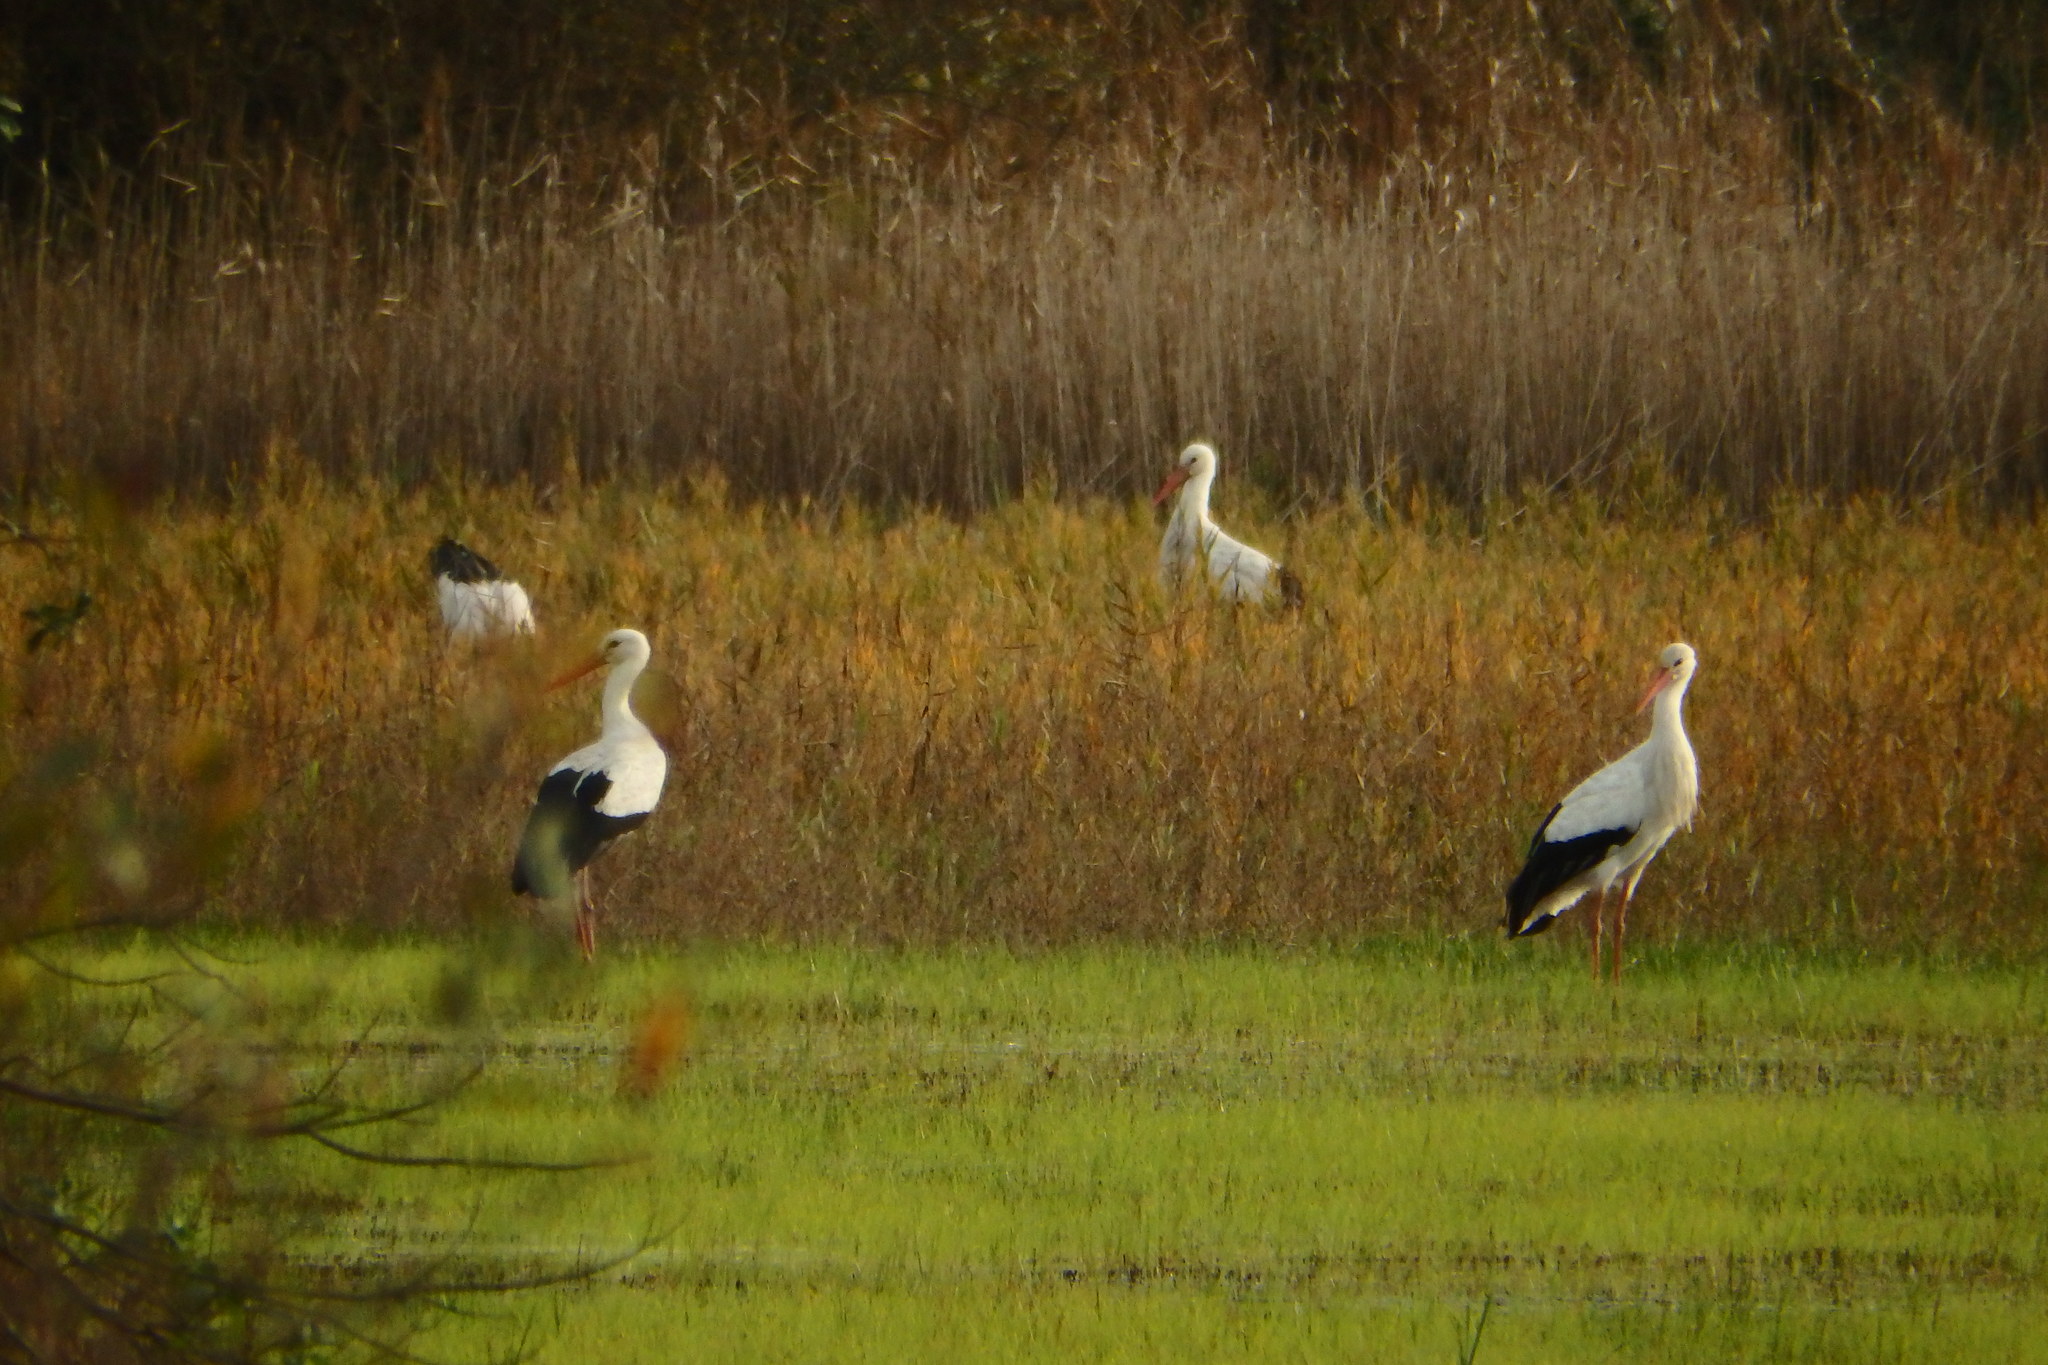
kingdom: Animalia
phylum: Chordata
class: Aves
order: Ciconiiformes
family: Ciconiidae
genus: Ciconia
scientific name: Ciconia ciconia
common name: White stork
